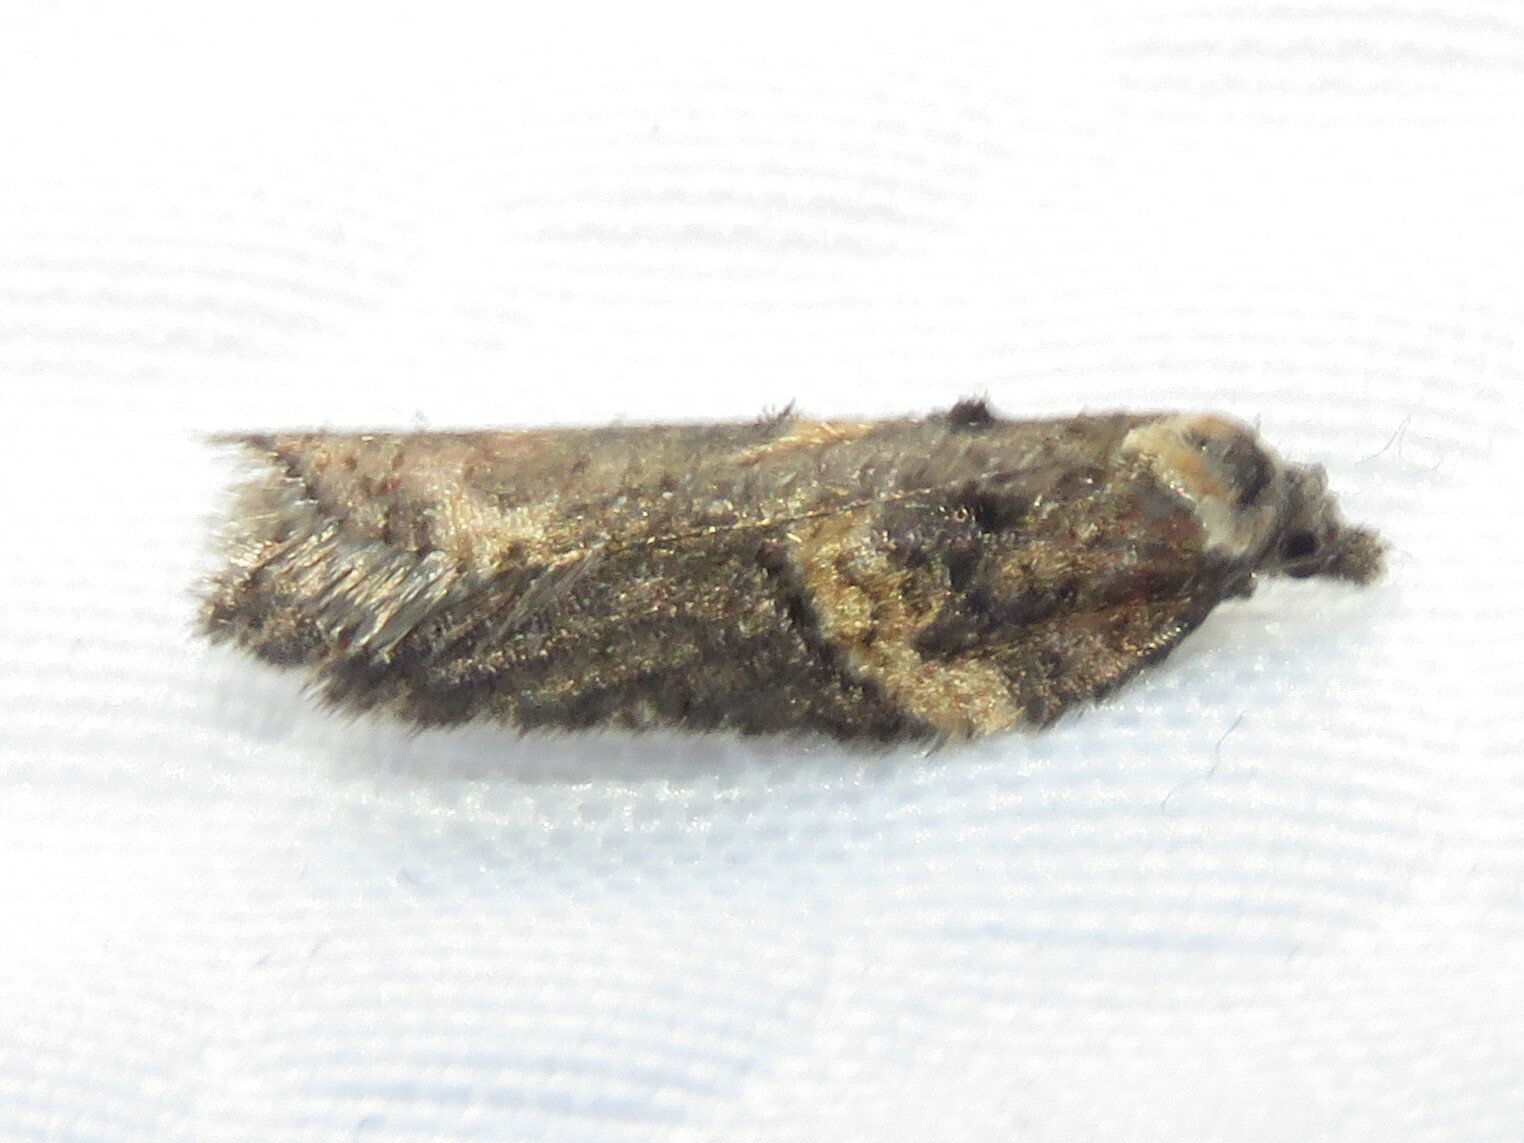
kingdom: Animalia
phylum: Arthropoda
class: Insecta
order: Lepidoptera
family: Tortricidae
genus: Acleris
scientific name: Acleris hastiana
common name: Sallow button
